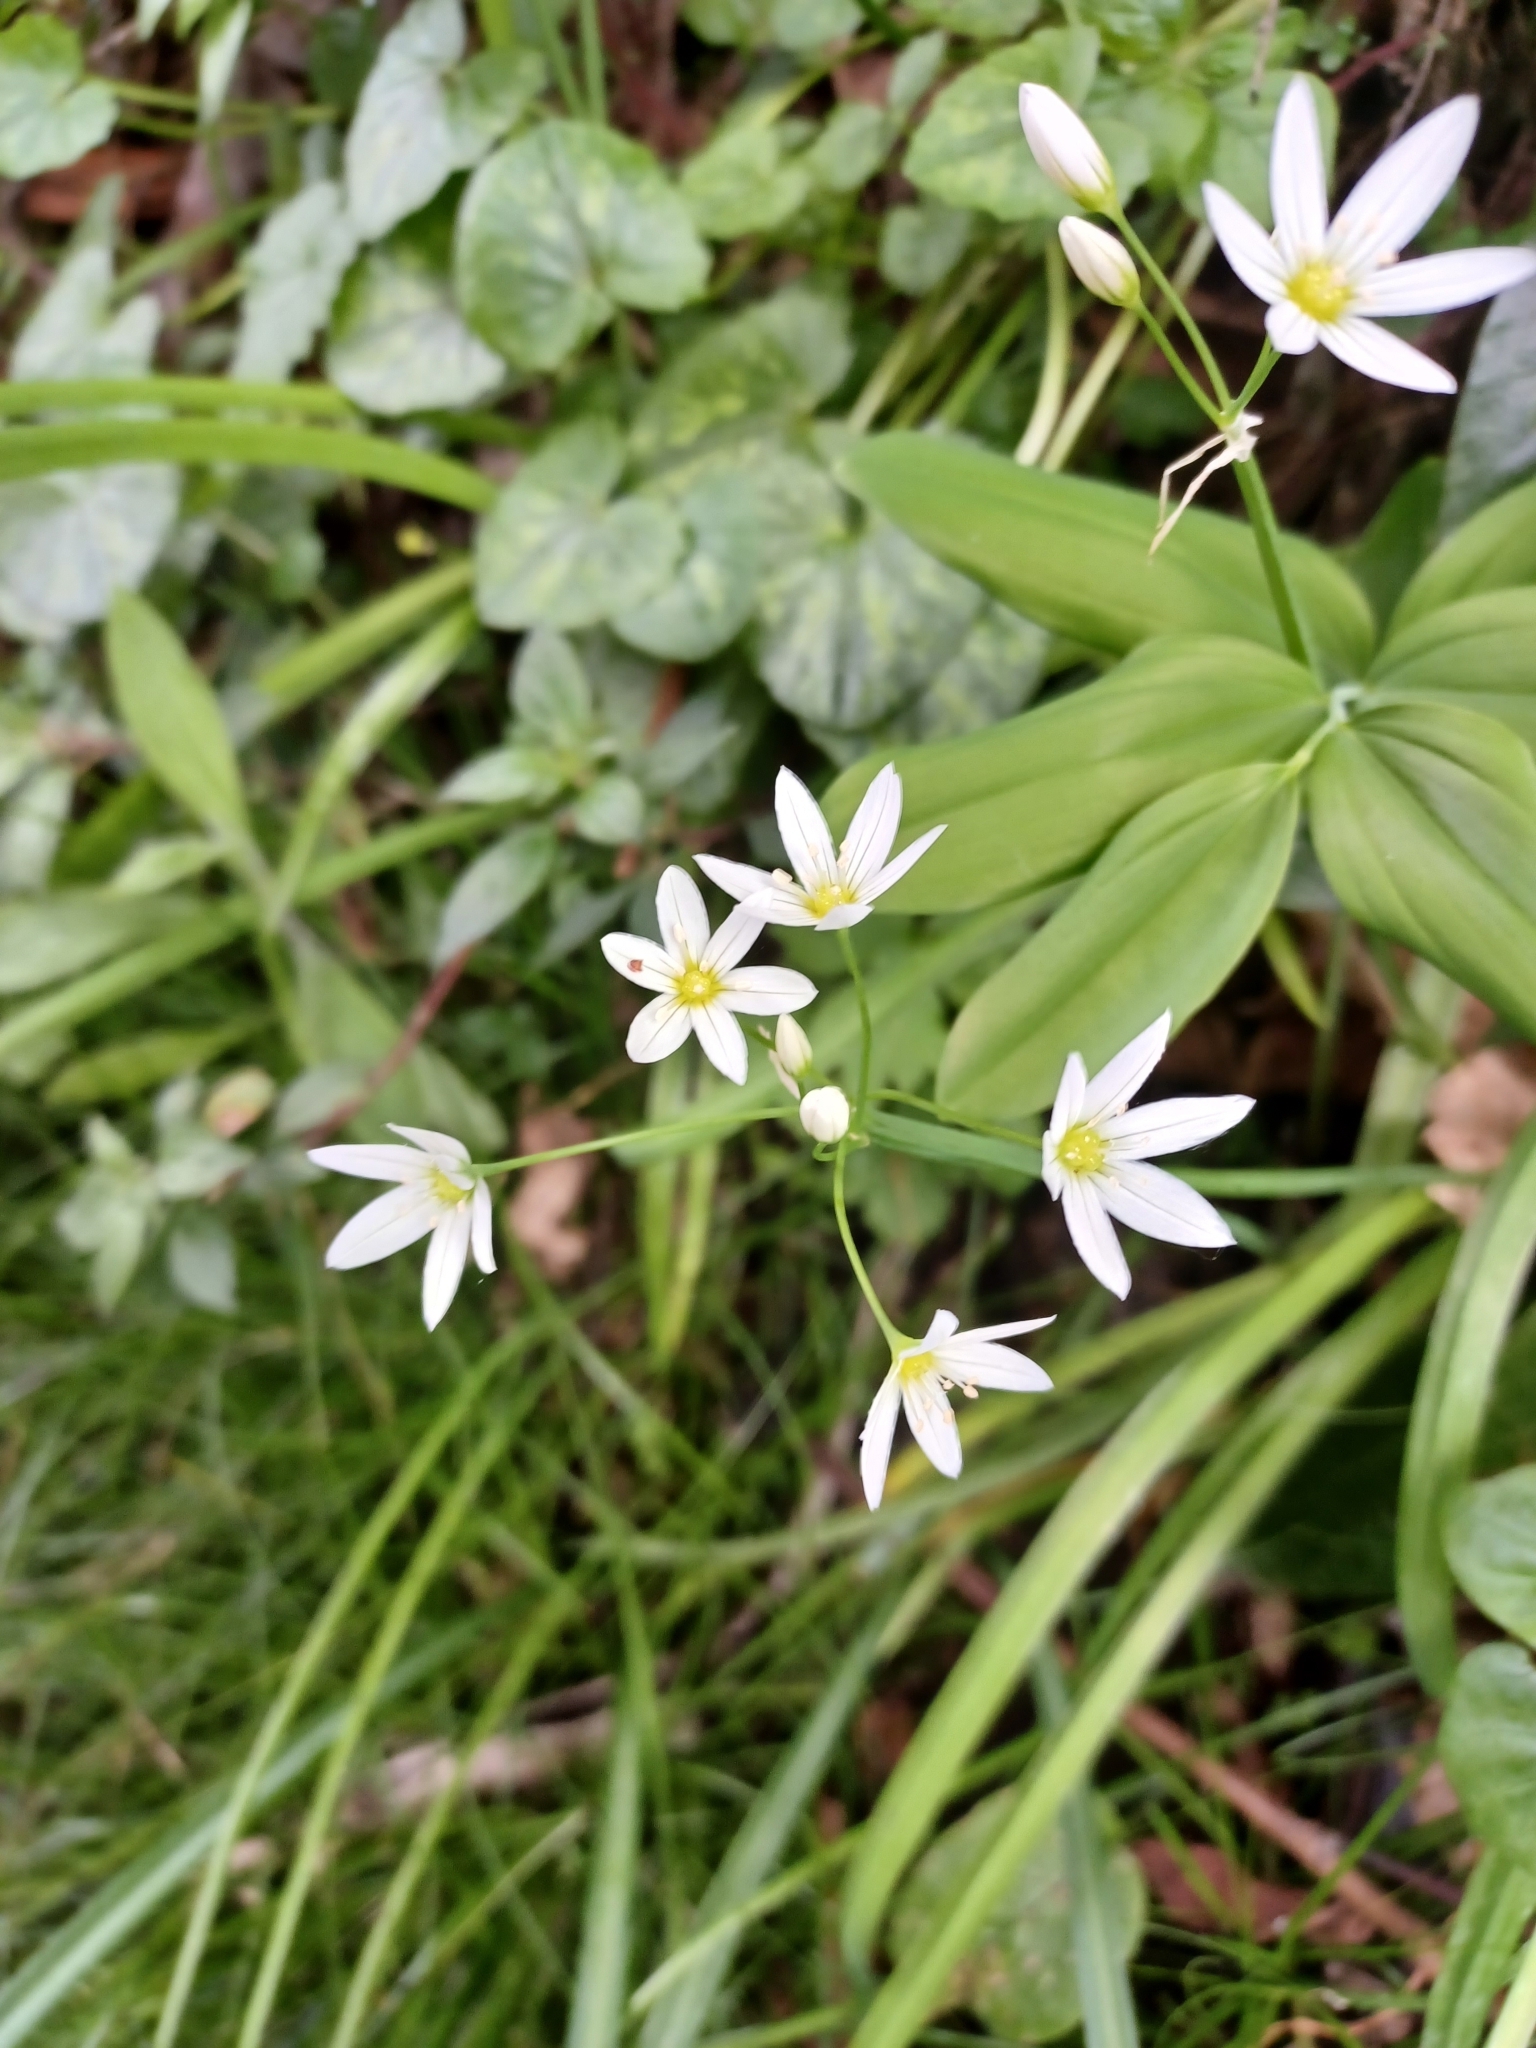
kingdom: Plantae
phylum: Tracheophyta
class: Liliopsida
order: Asparagales
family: Amaryllidaceae
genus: Allium
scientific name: Allium pendulinum
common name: Italian garlic
